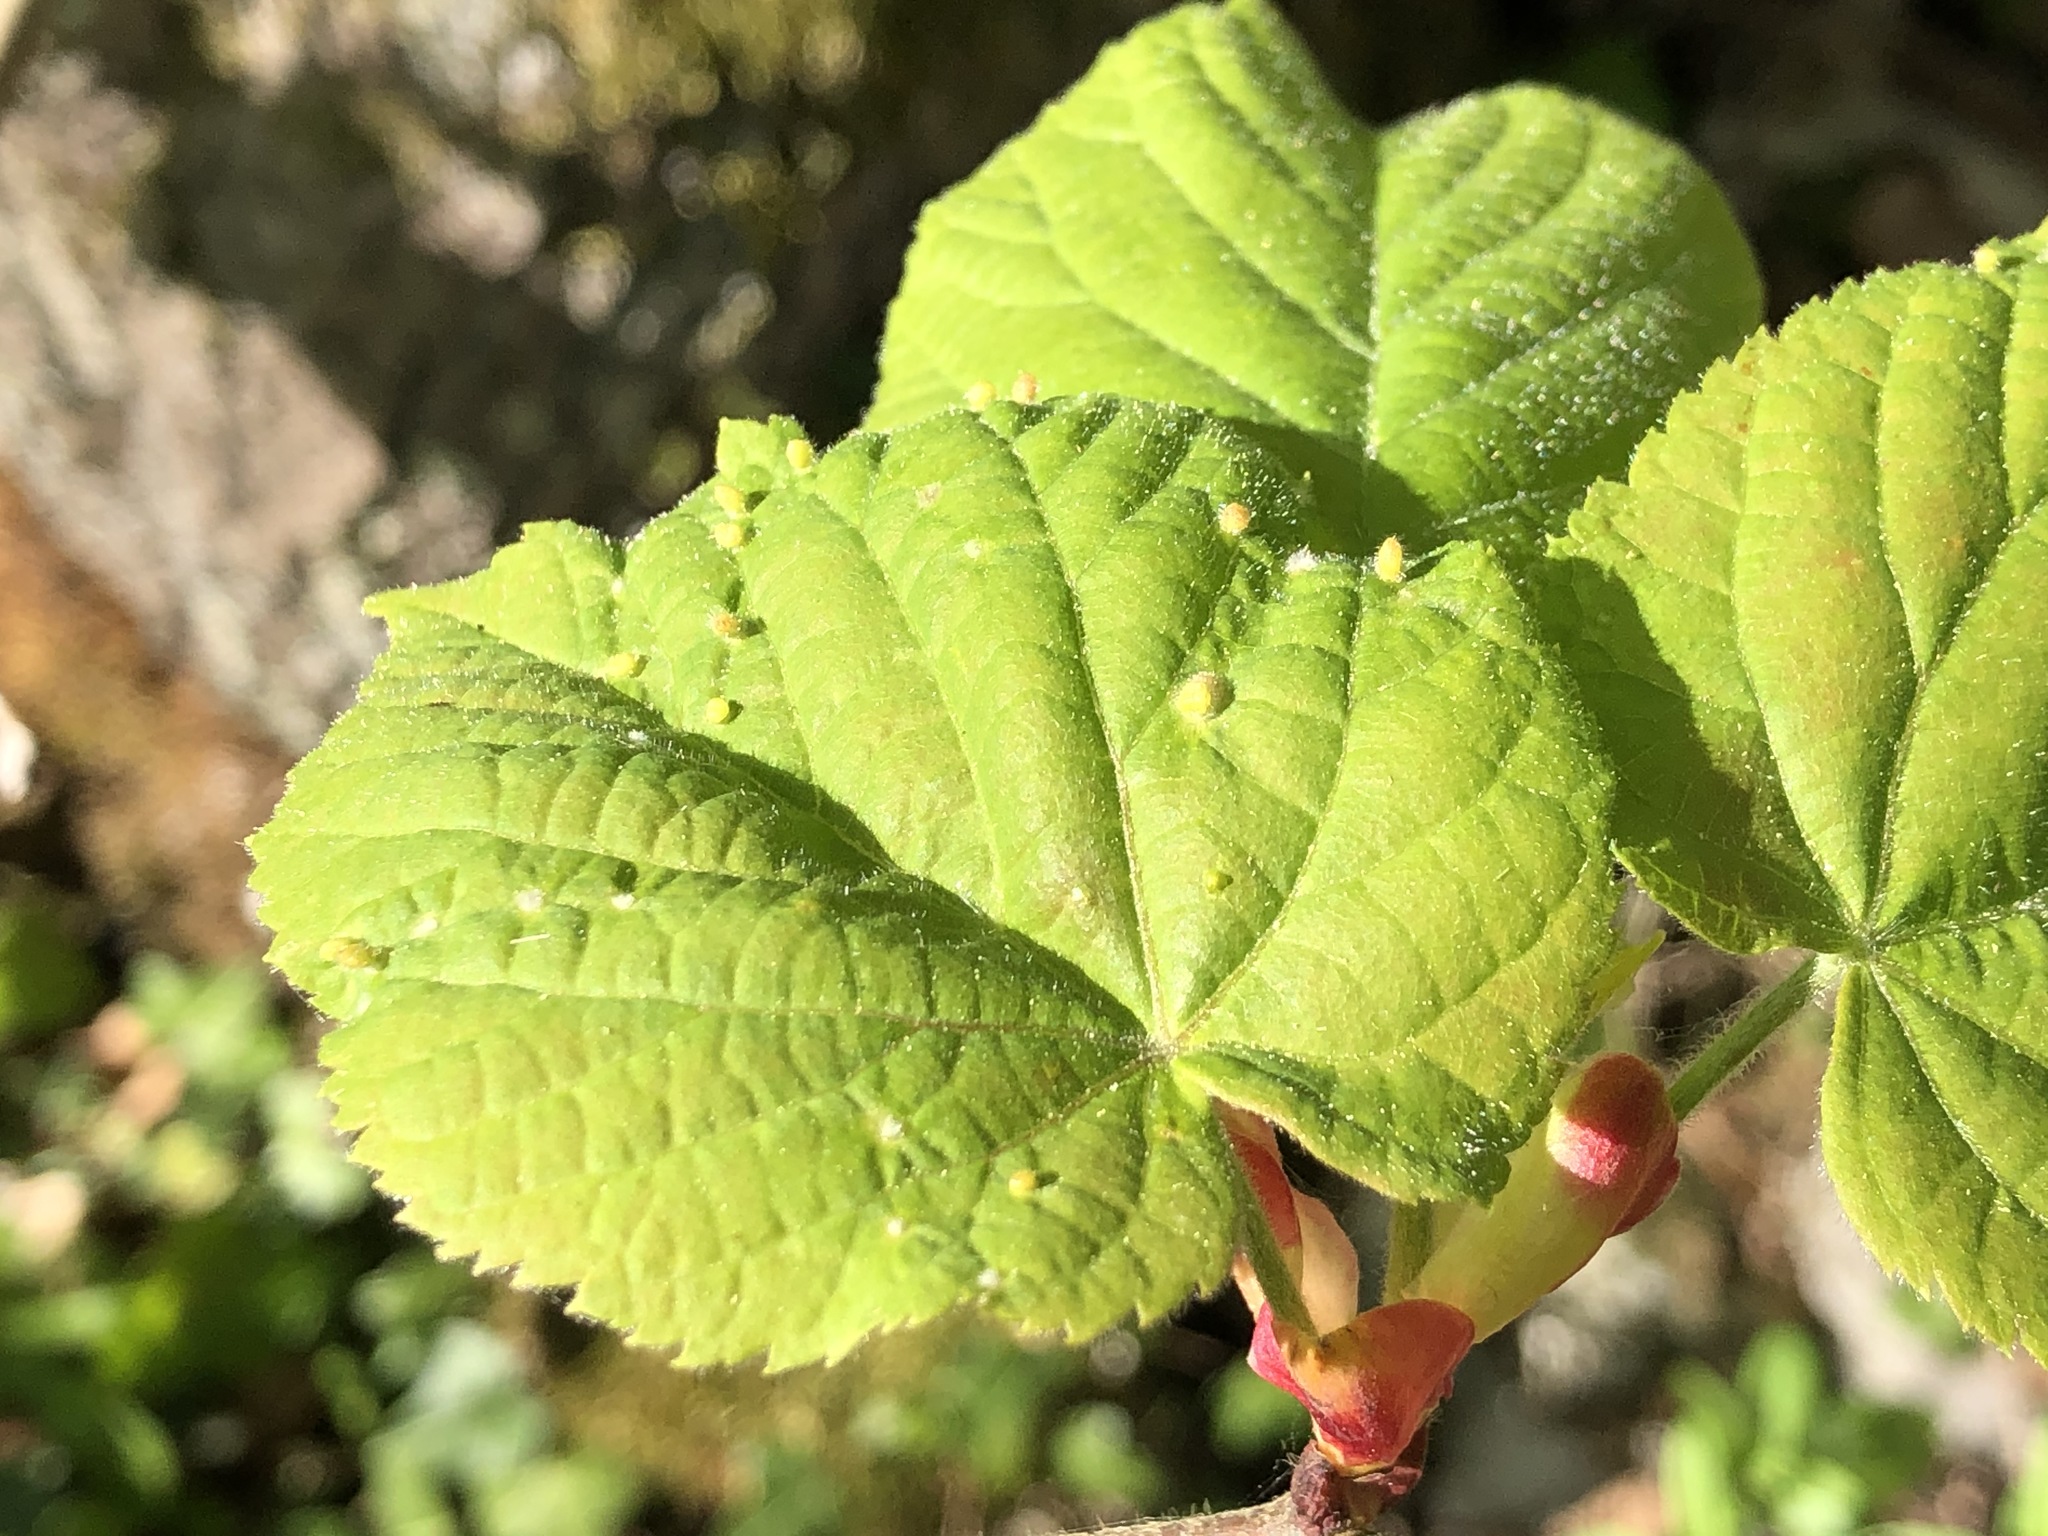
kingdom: Animalia
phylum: Arthropoda
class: Arachnida
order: Trombidiformes
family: Eriophyidae
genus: Eriophyes
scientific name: Eriophyes tiliae
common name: Red nail gall mite
